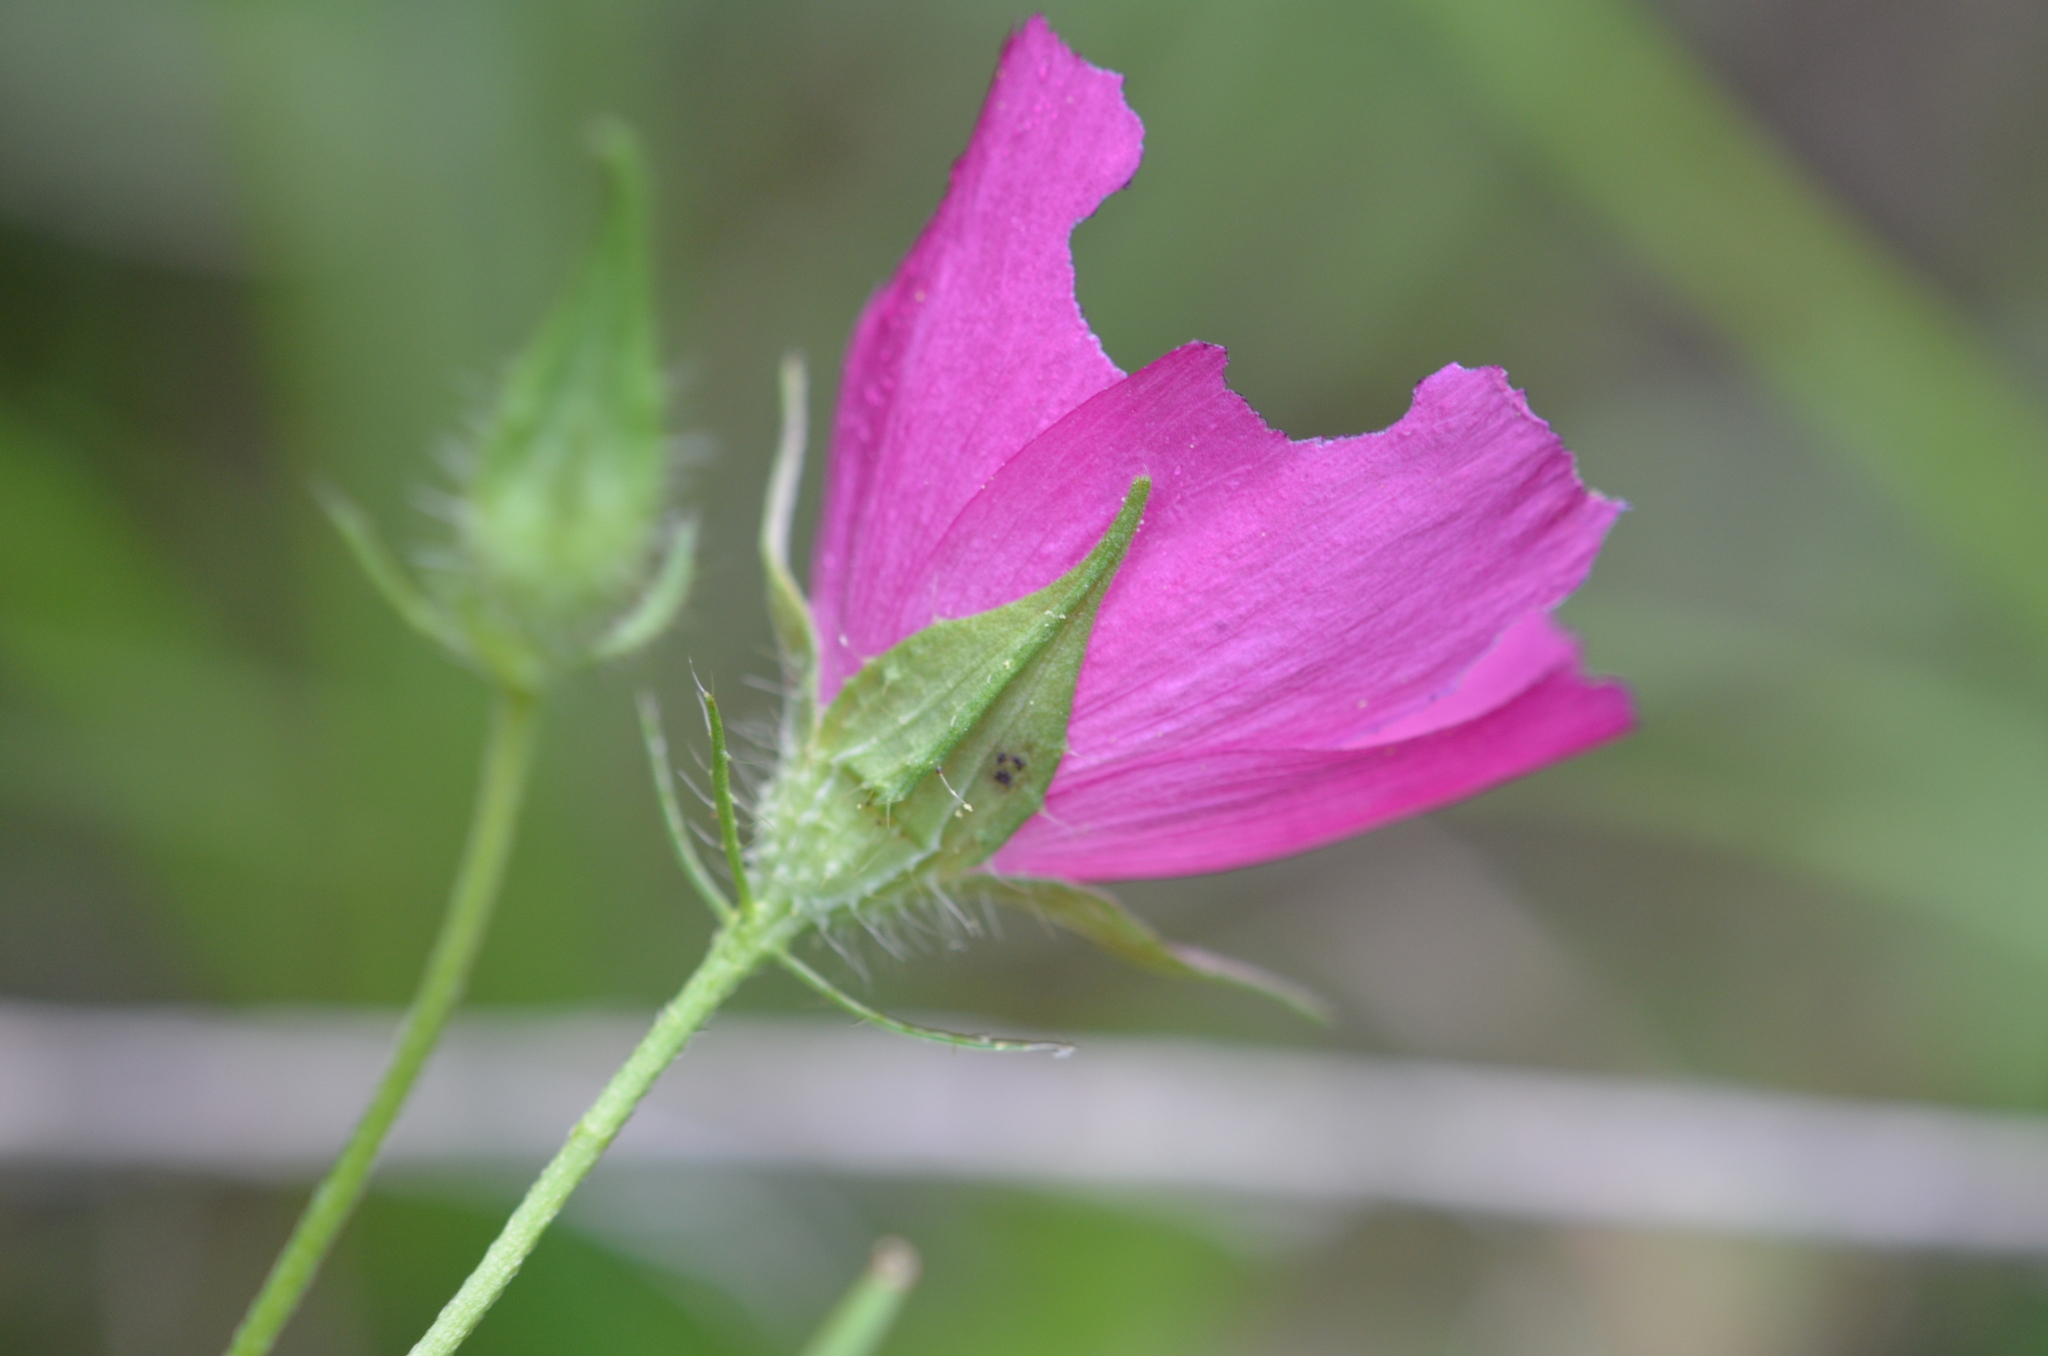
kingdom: Plantae
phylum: Tracheophyta
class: Magnoliopsida
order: Malvales
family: Malvaceae
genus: Callirhoe
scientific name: Callirhoe papaver
